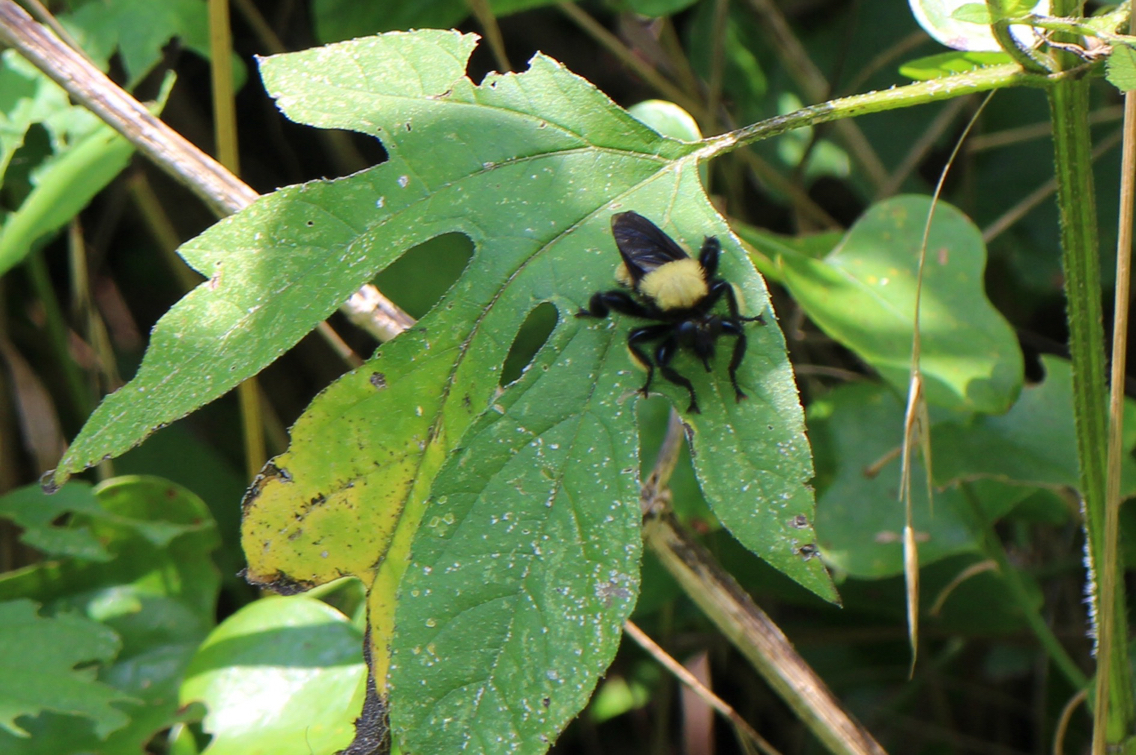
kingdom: Animalia
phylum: Arthropoda
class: Insecta
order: Diptera
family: Asilidae
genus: Laphria
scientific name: Laphria macquarti
